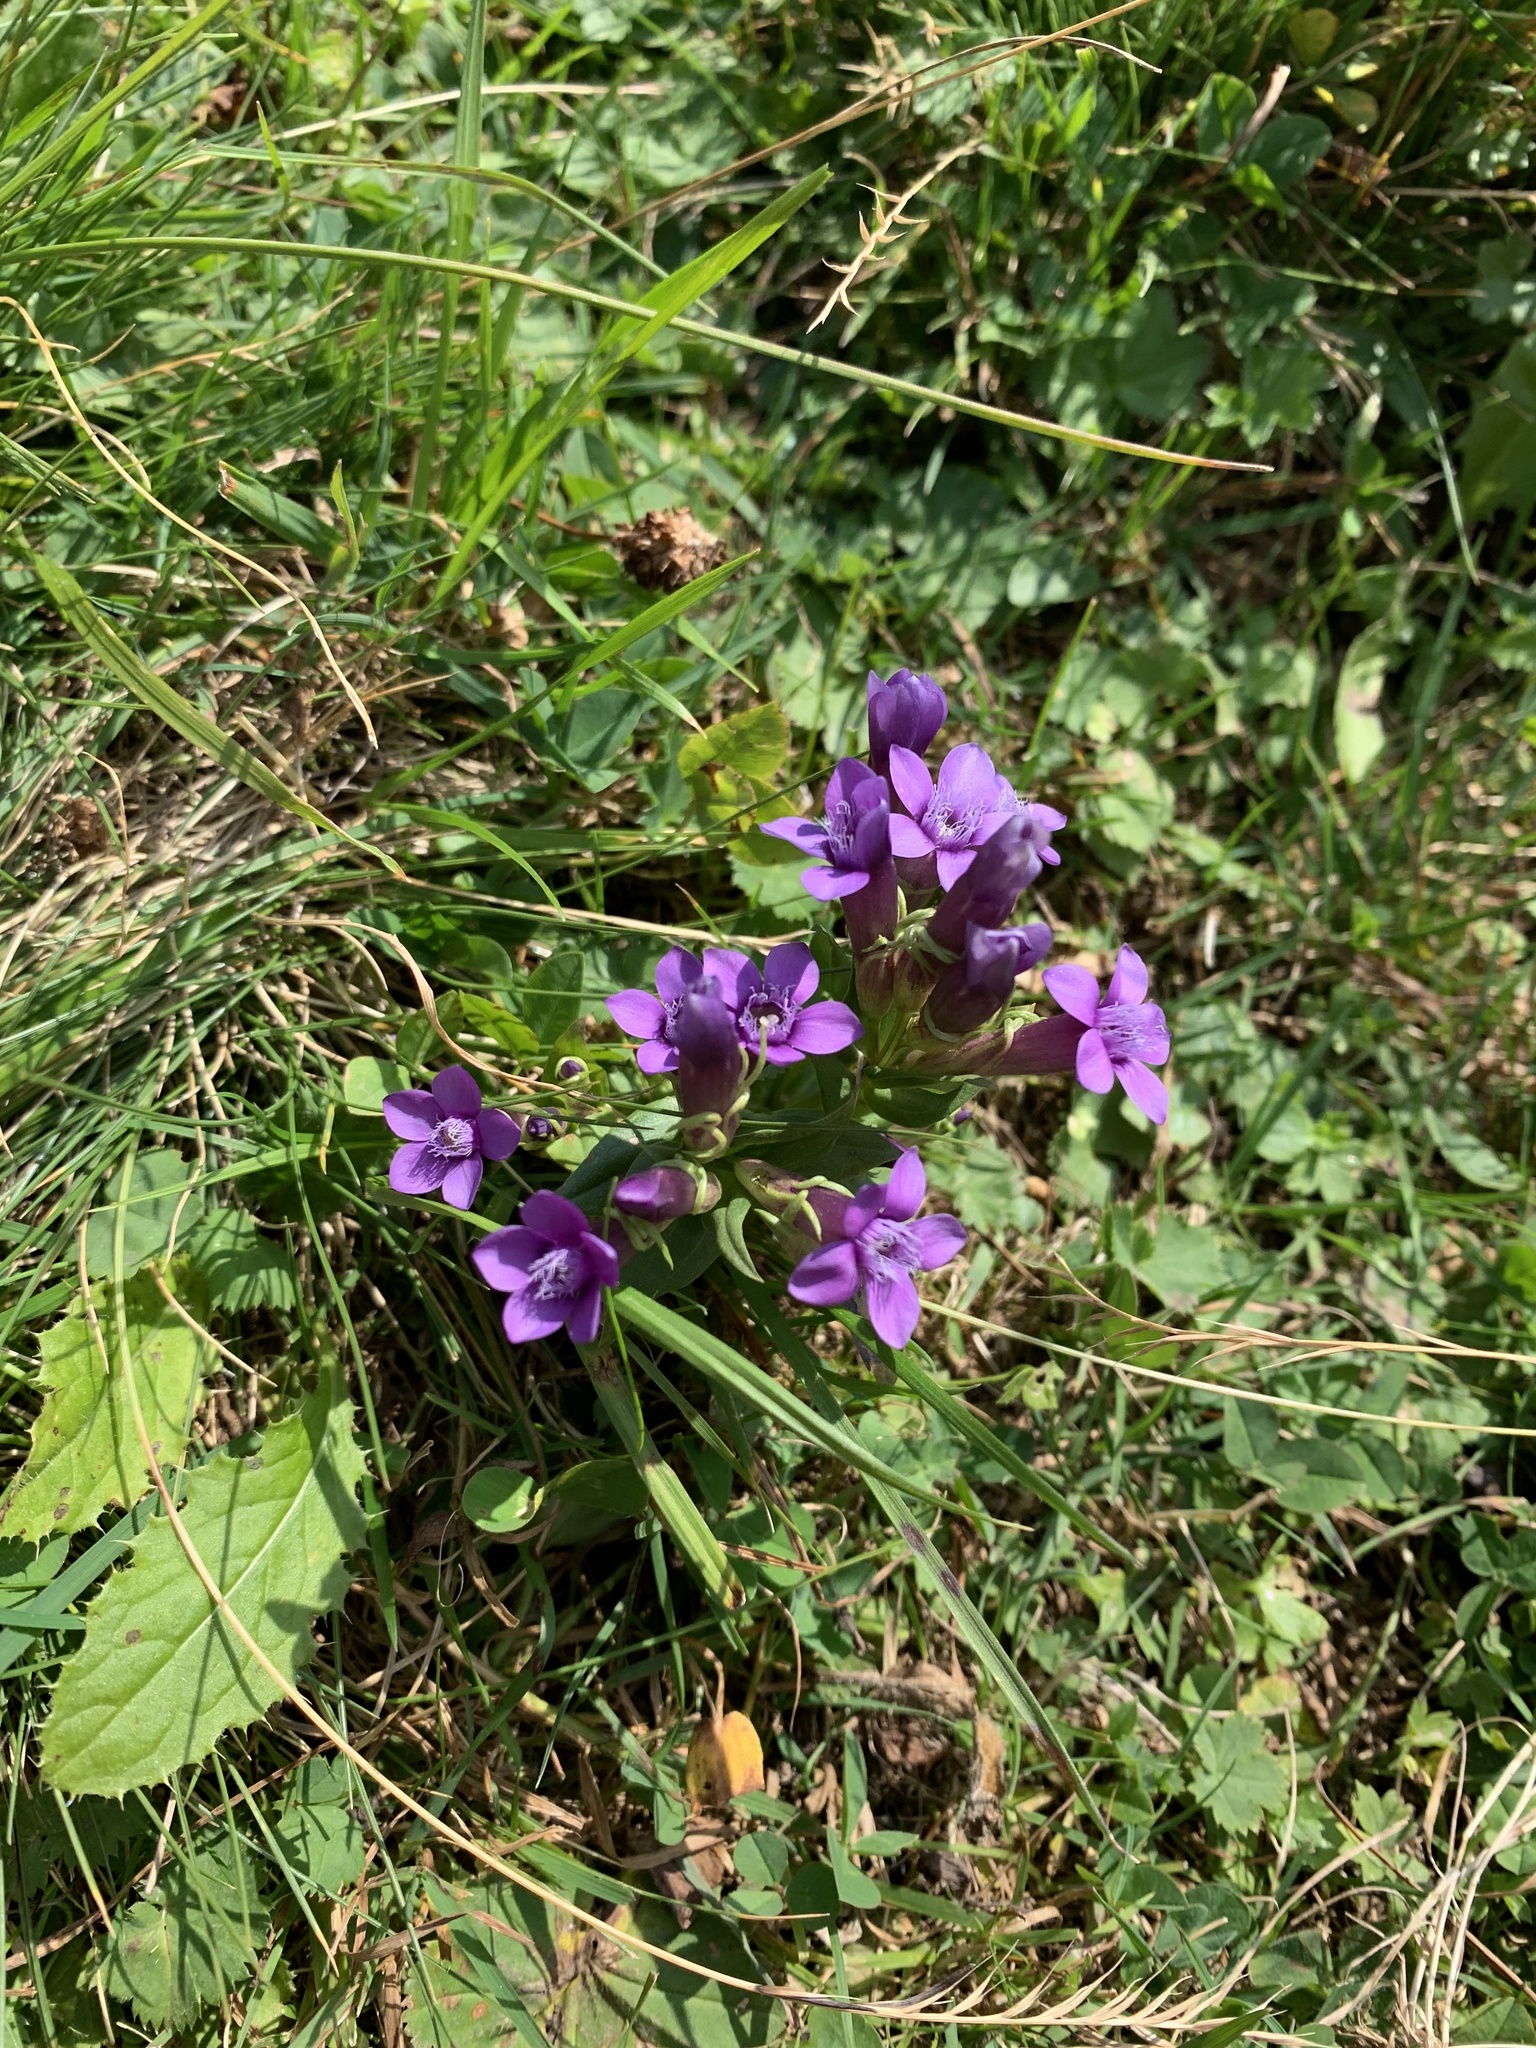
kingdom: Plantae
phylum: Tracheophyta
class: Magnoliopsida
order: Gentianales
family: Gentianaceae
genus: Gentianella
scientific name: Gentianella caucasea
